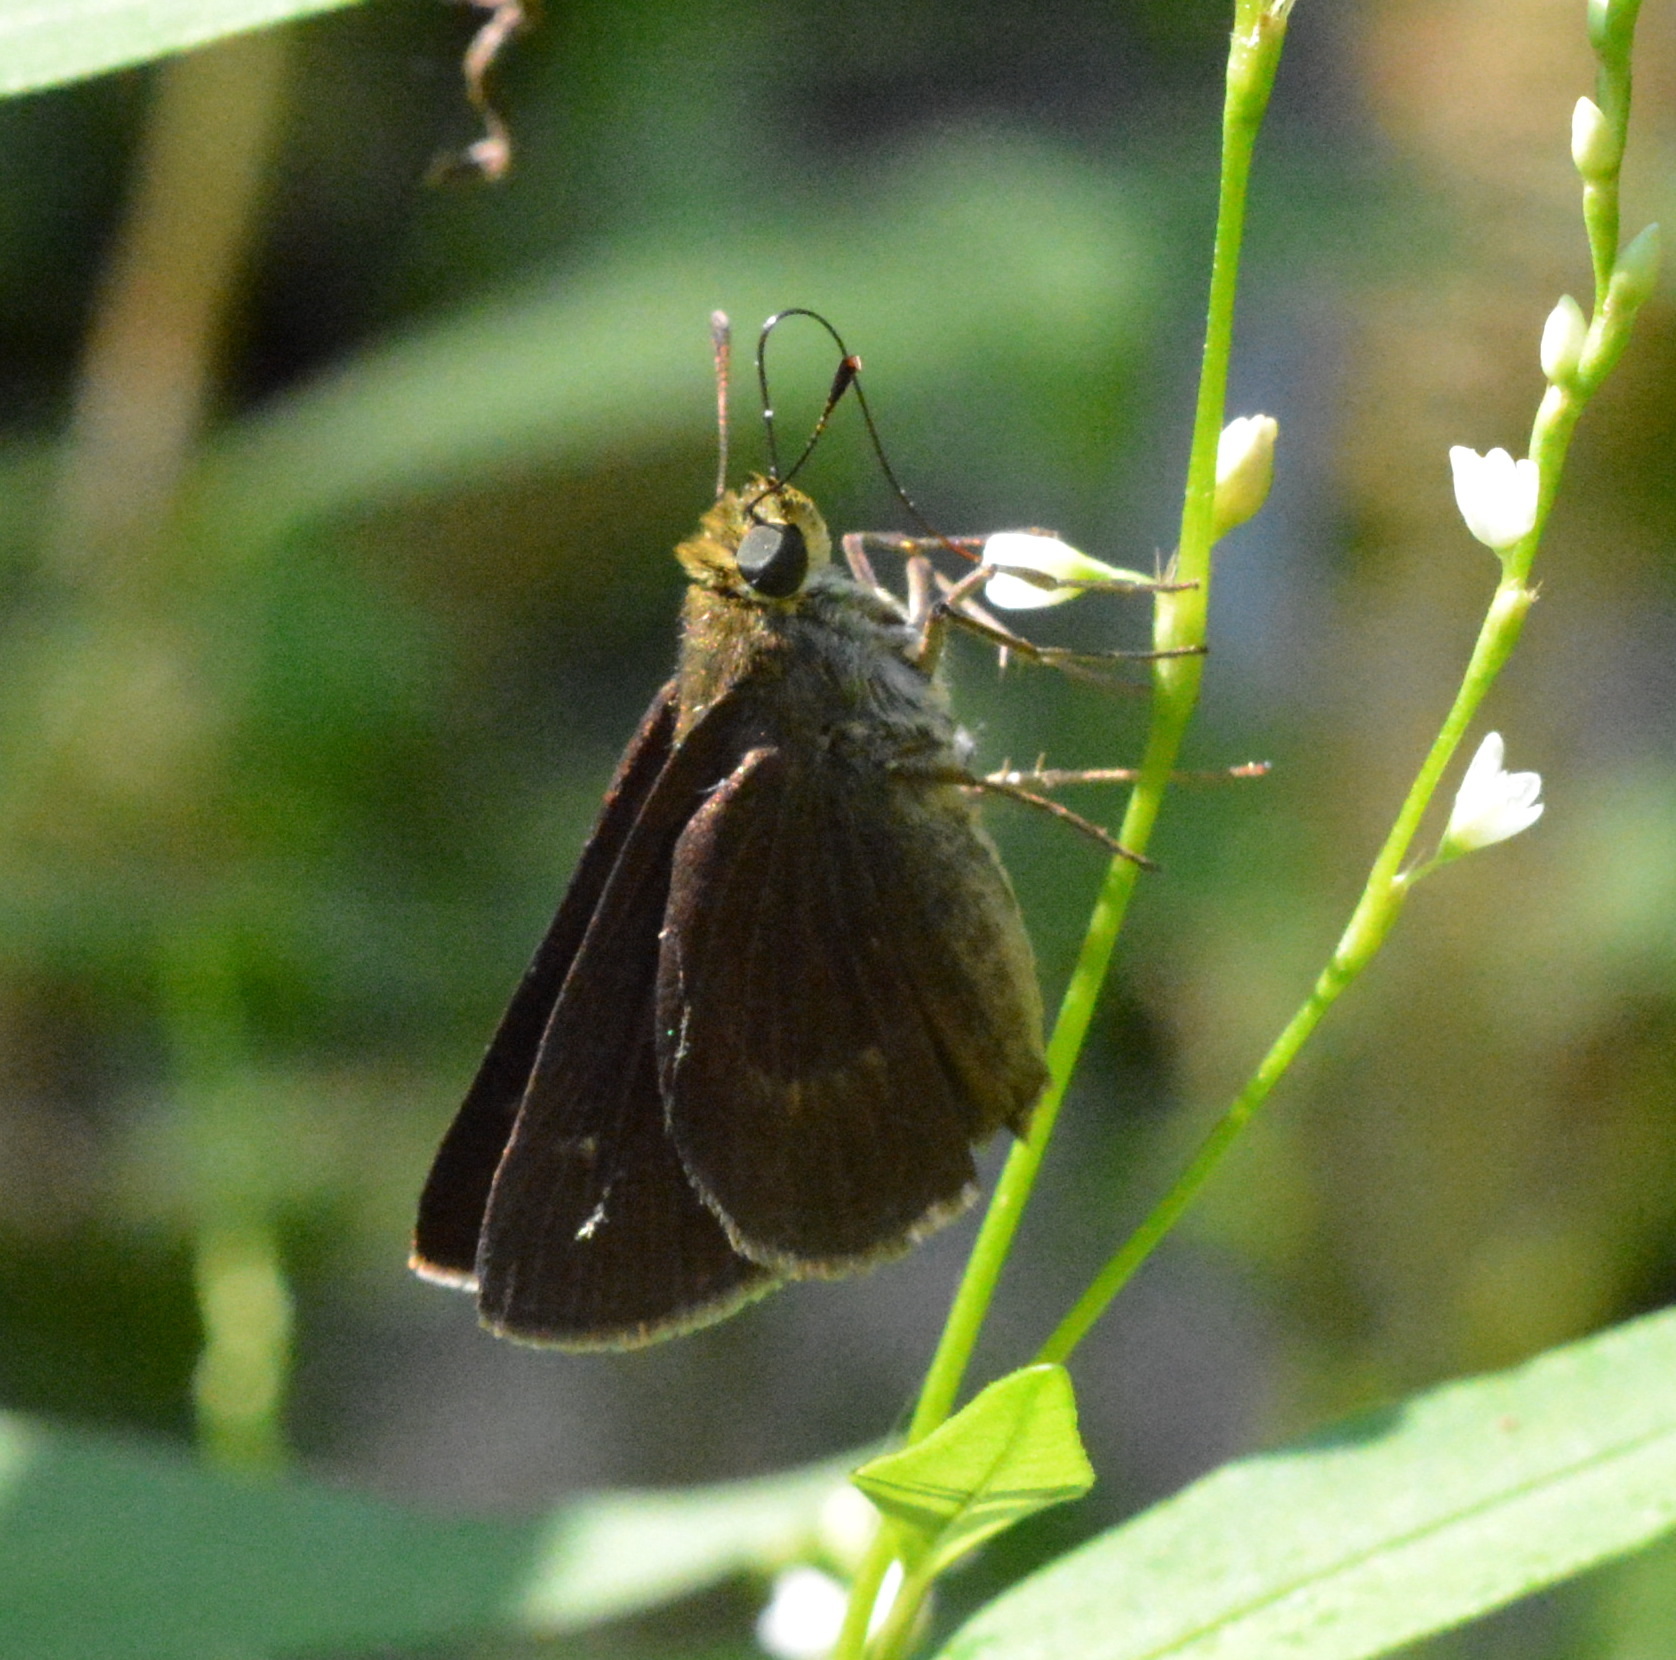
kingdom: Animalia
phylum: Arthropoda
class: Insecta
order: Lepidoptera
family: Hesperiidae
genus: Euphyes
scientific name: Euphyes vestris
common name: Dun skipper
